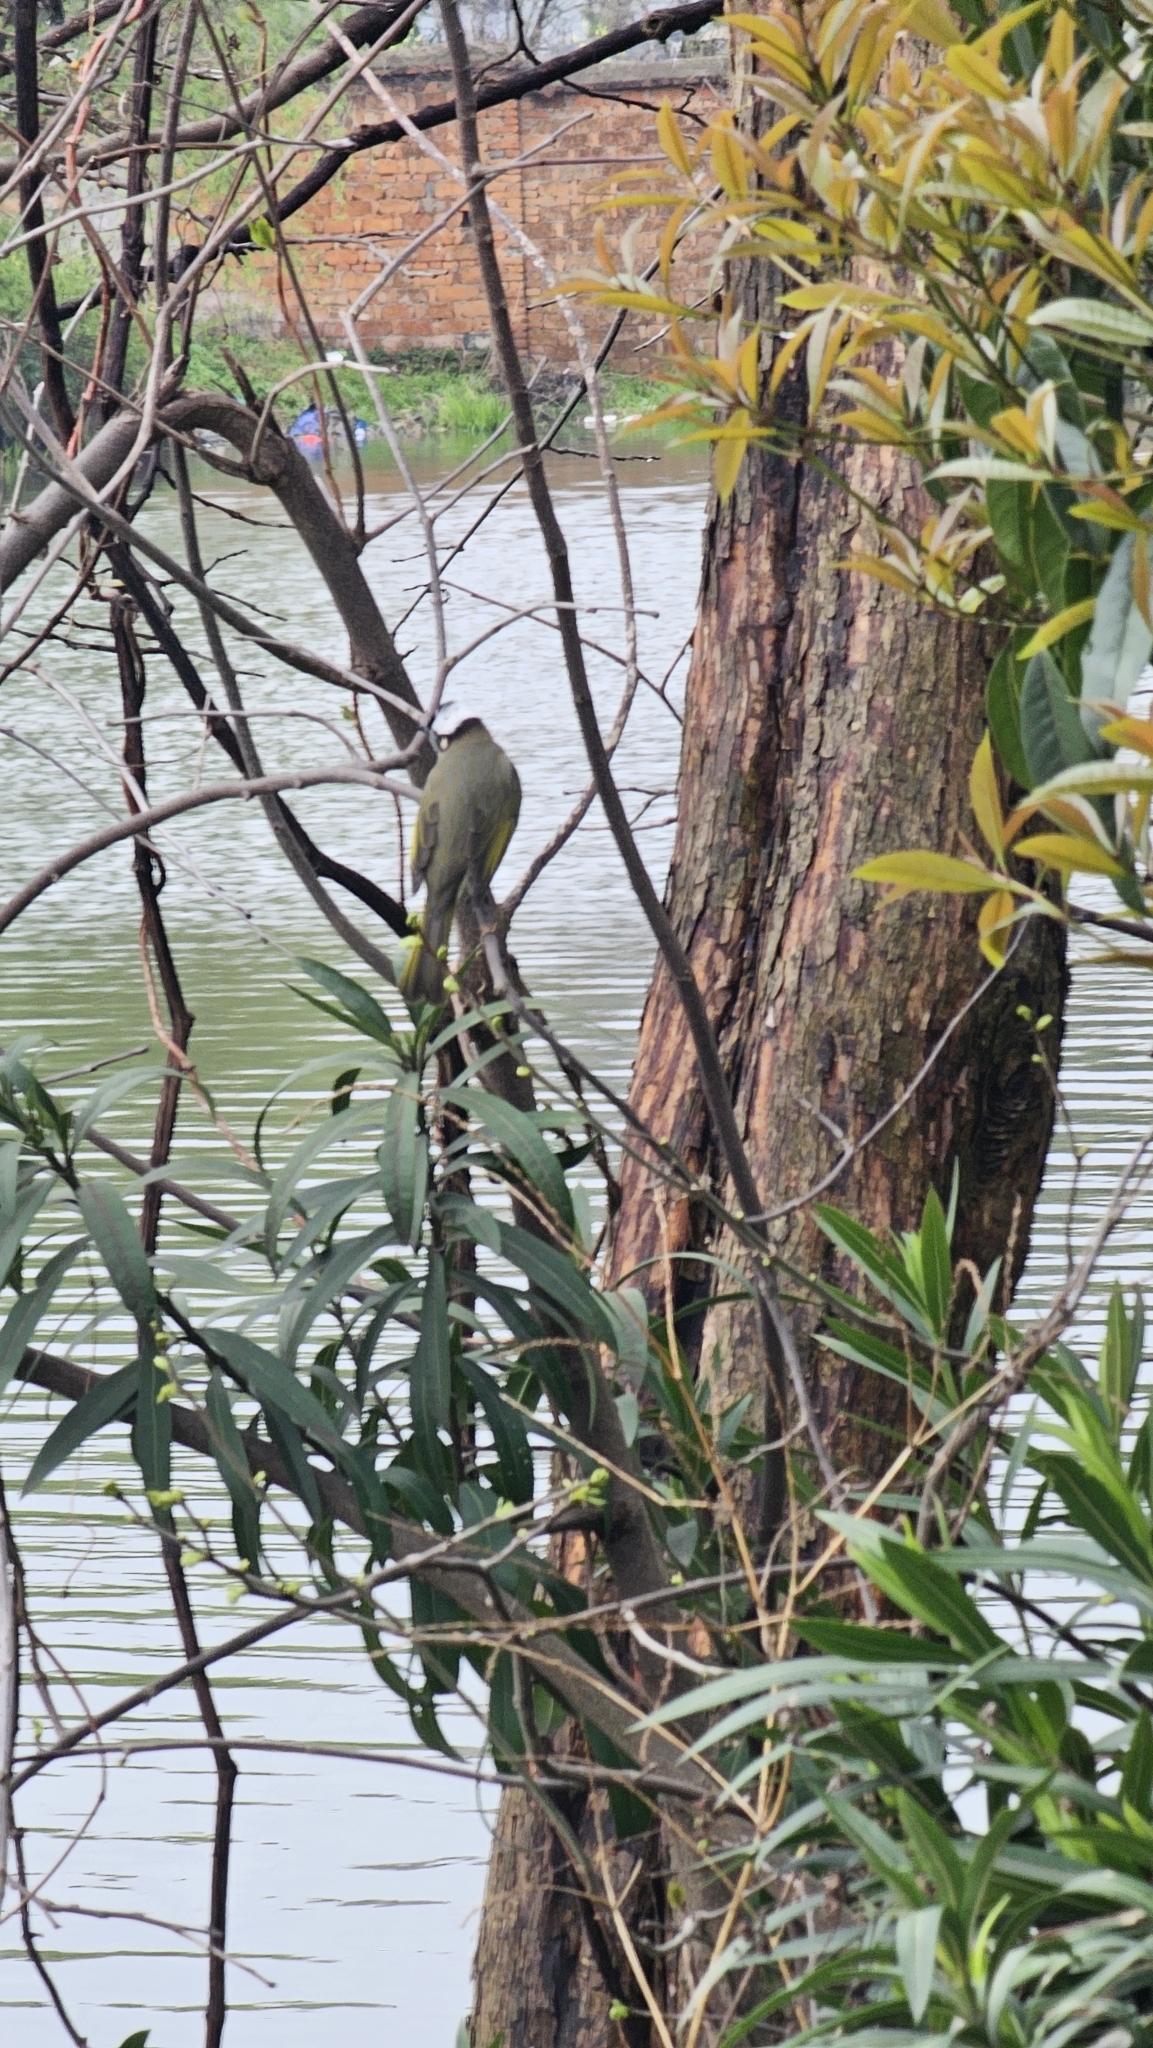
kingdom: Animalia
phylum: Chordata
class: Aves
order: Passeriformes
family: Pycnonotidae
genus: Pycnonotus
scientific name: Pycnonotus sinensis
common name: Light-vented bulbul
